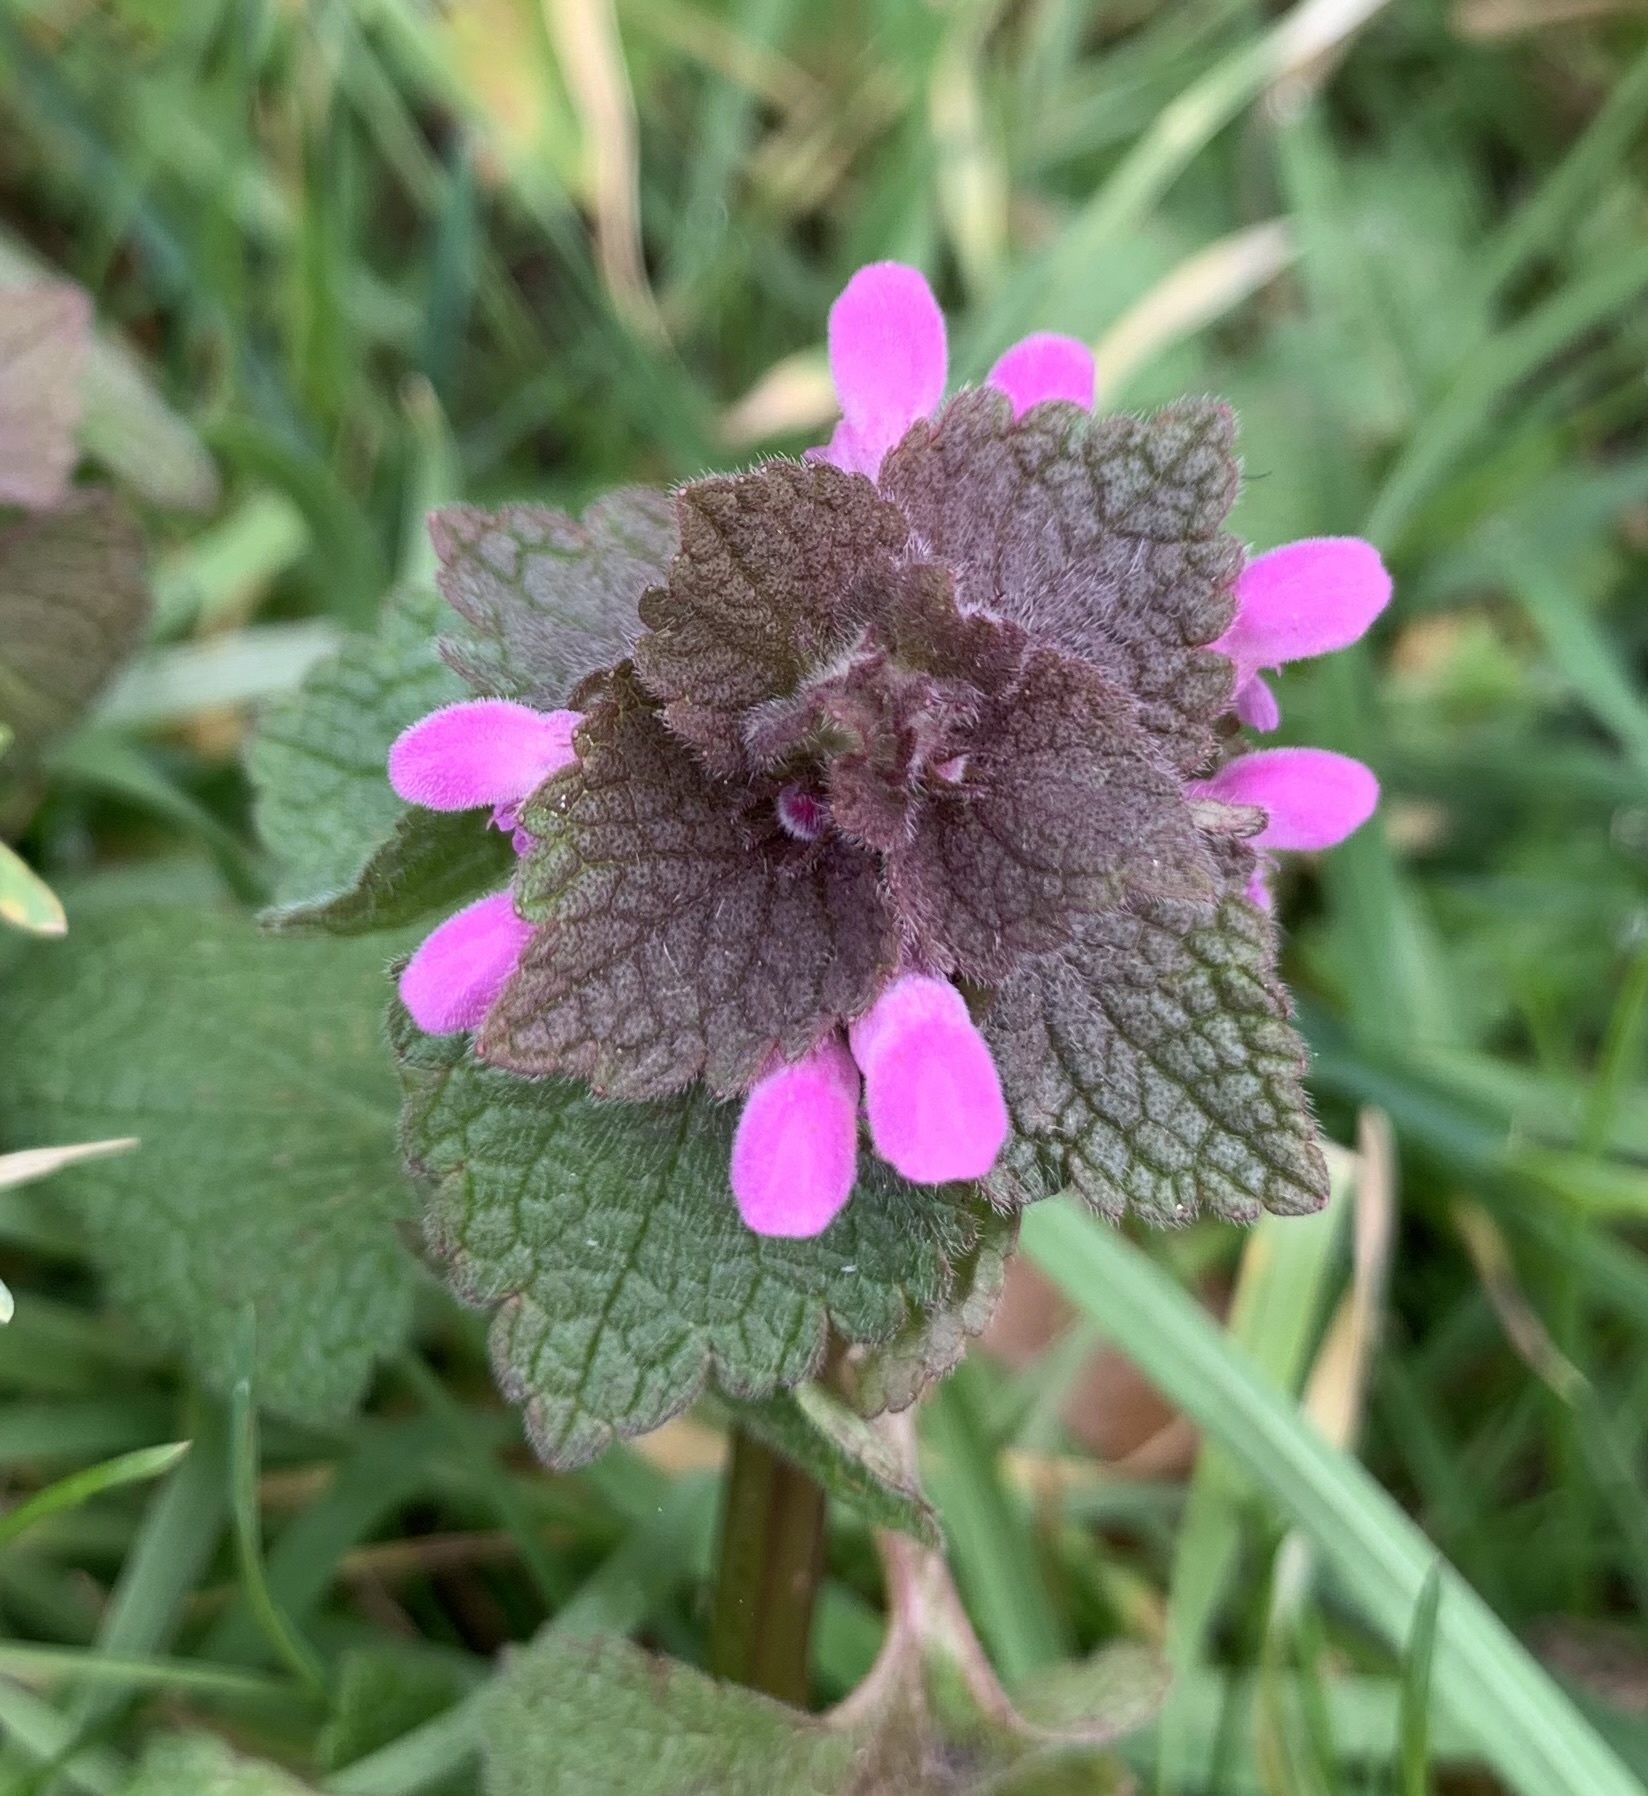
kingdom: Plantae
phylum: Tracheophyta
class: Magnoliopsida
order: Lamiales
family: Lamiaceae
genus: Lamium
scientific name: Lamium purpureum
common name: Red dead-nettle
